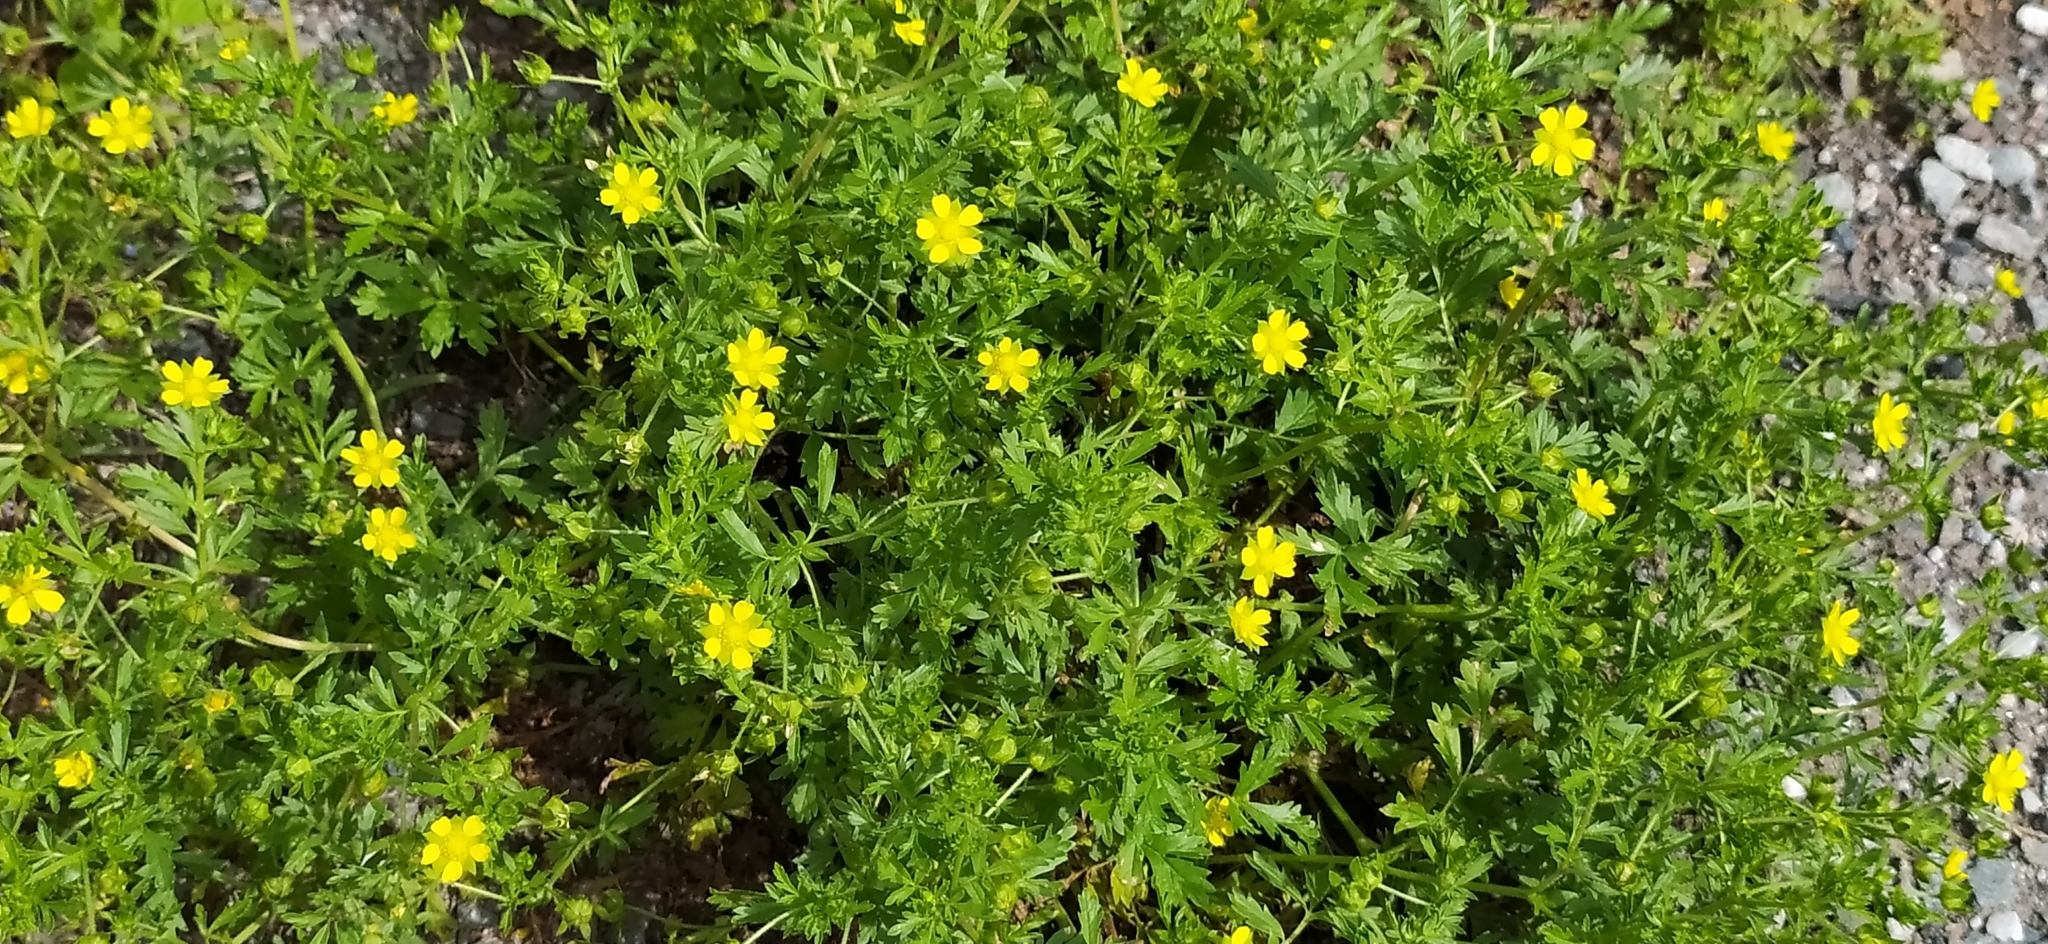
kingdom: Plantae
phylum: Tracheophyta
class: Magnoliopsida
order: Rosales
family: Rosaceae
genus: Potentilla
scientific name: Potentilla supina
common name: Prostrate cinquefoil
